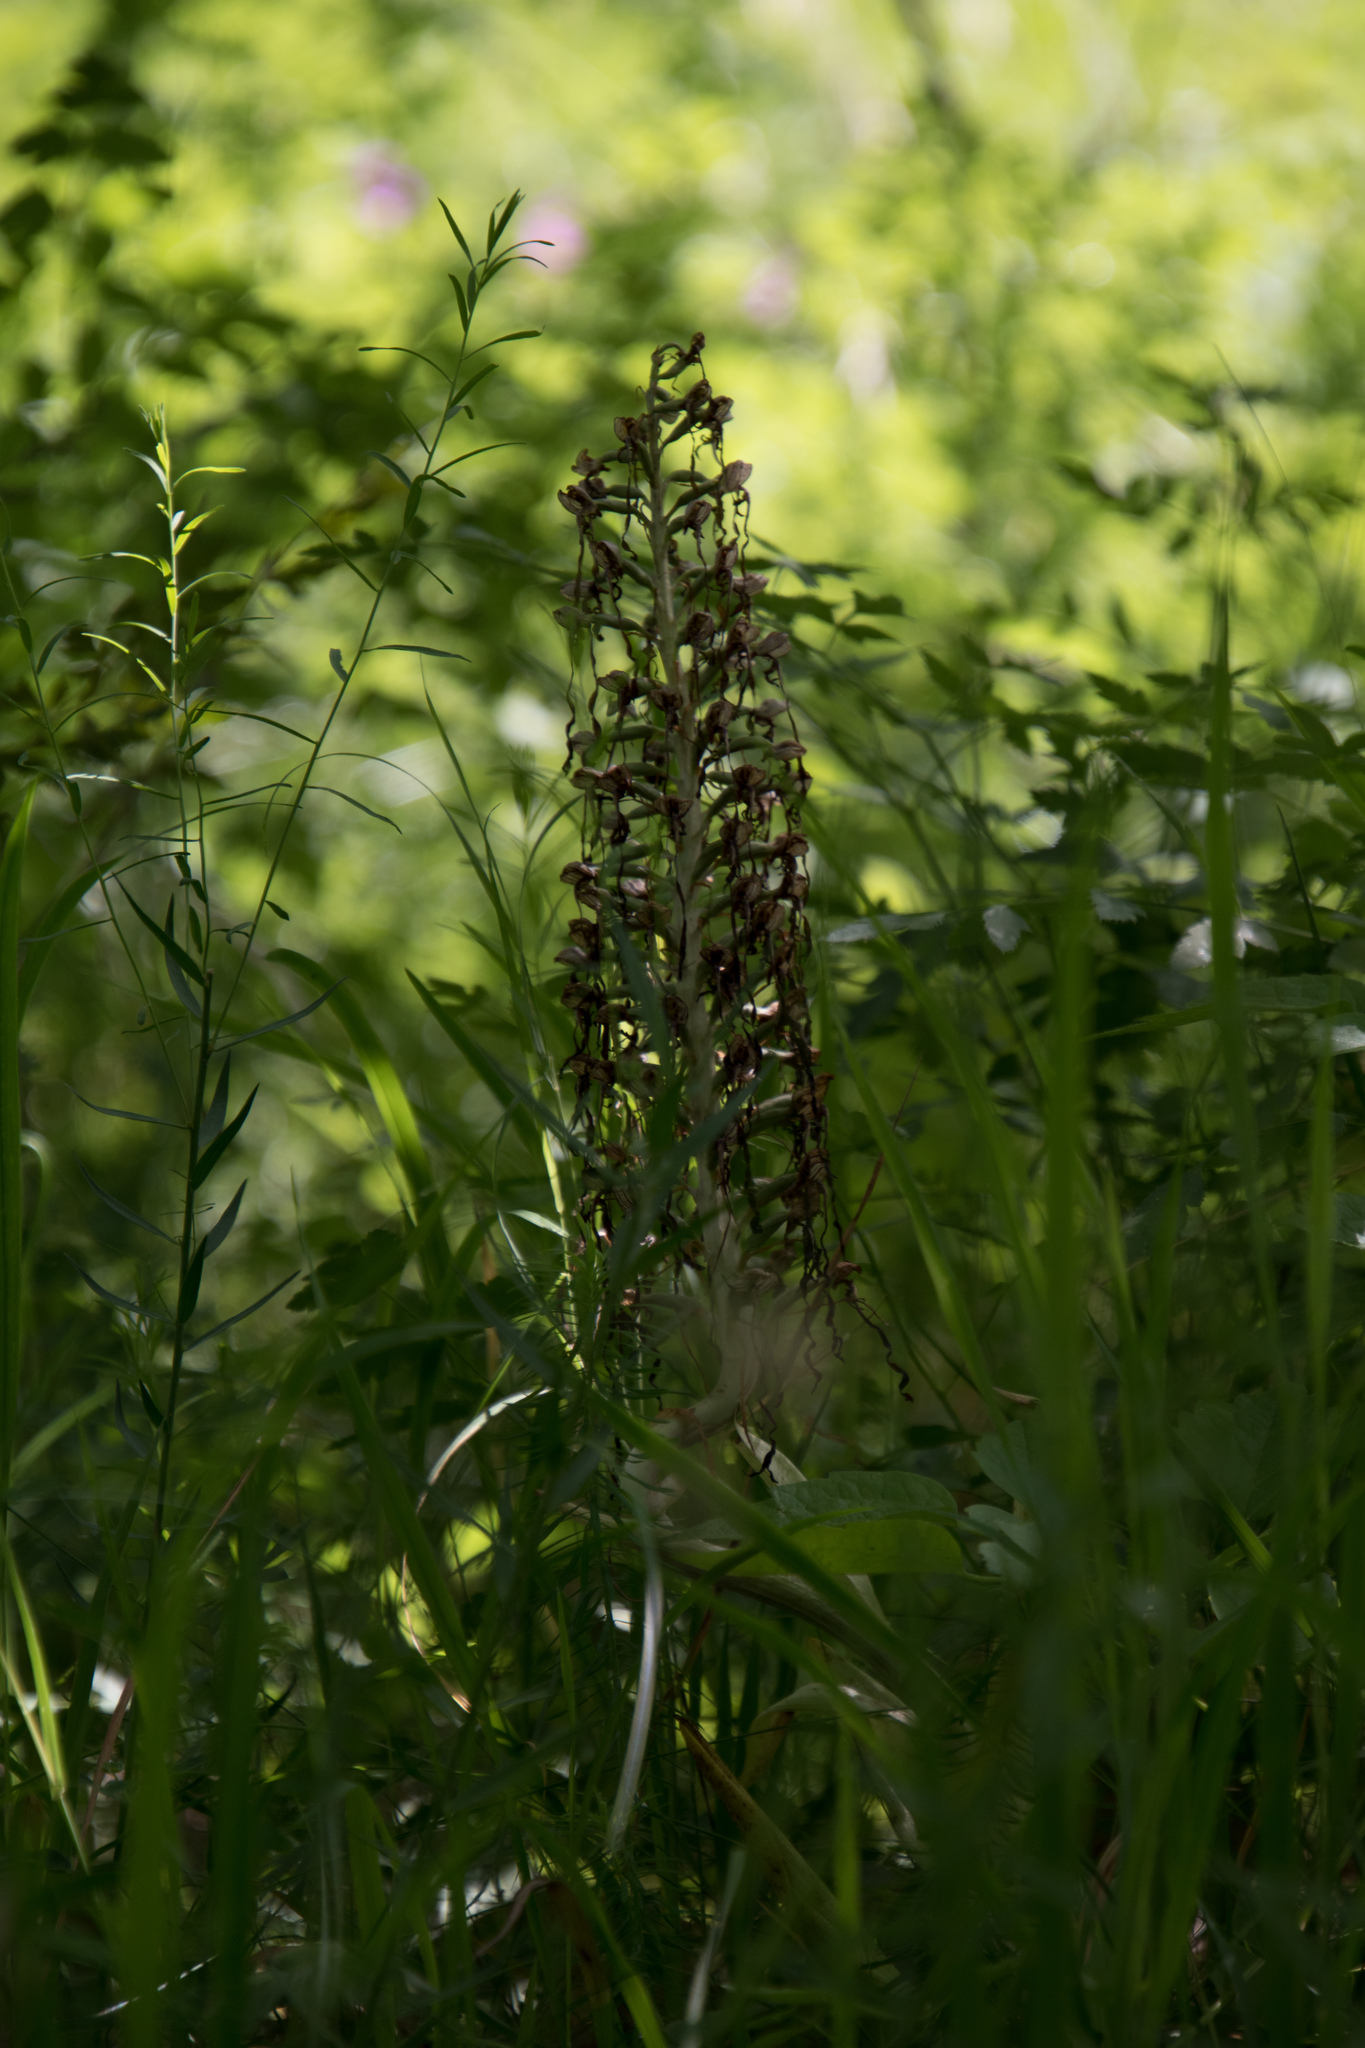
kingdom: Plantae
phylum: Tracheophyta
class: Liliopsida
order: Asparagales
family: Orchidaceae
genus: Himantoglossum
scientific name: Himantoglossum hircinum
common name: Lizard orchid
